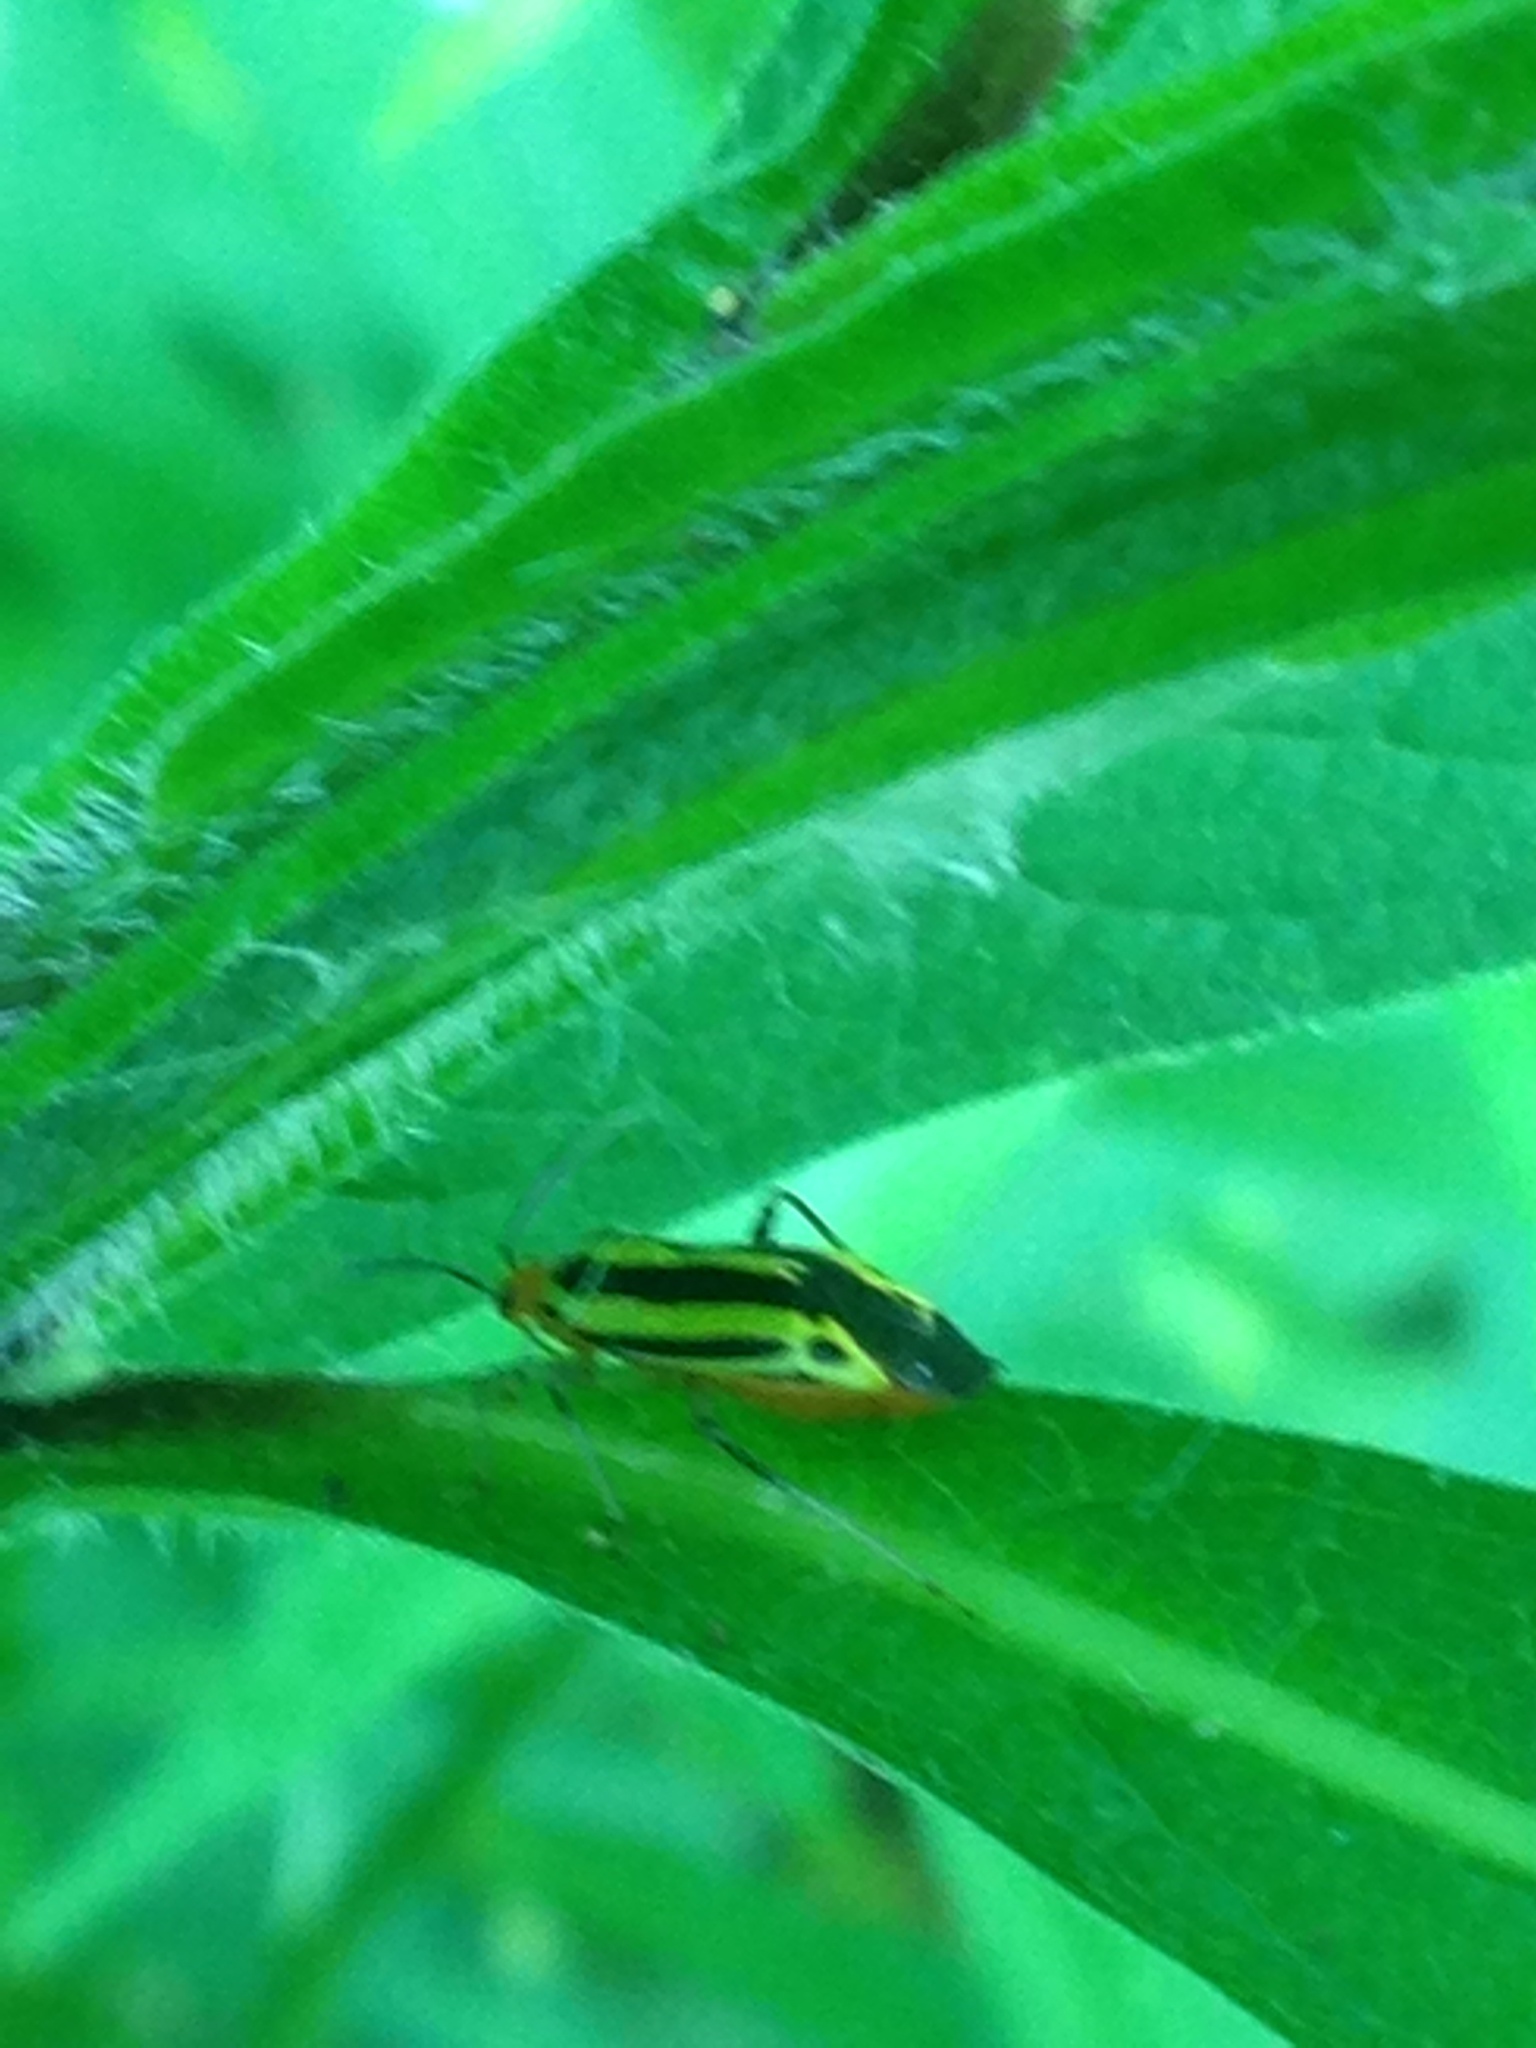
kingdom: Animalia
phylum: Arthropoda
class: Insecta
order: Hemiptera
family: Miridae
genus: Poecilocapsus
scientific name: Poecilocapsus lineatus
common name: Four-lined plant bug
